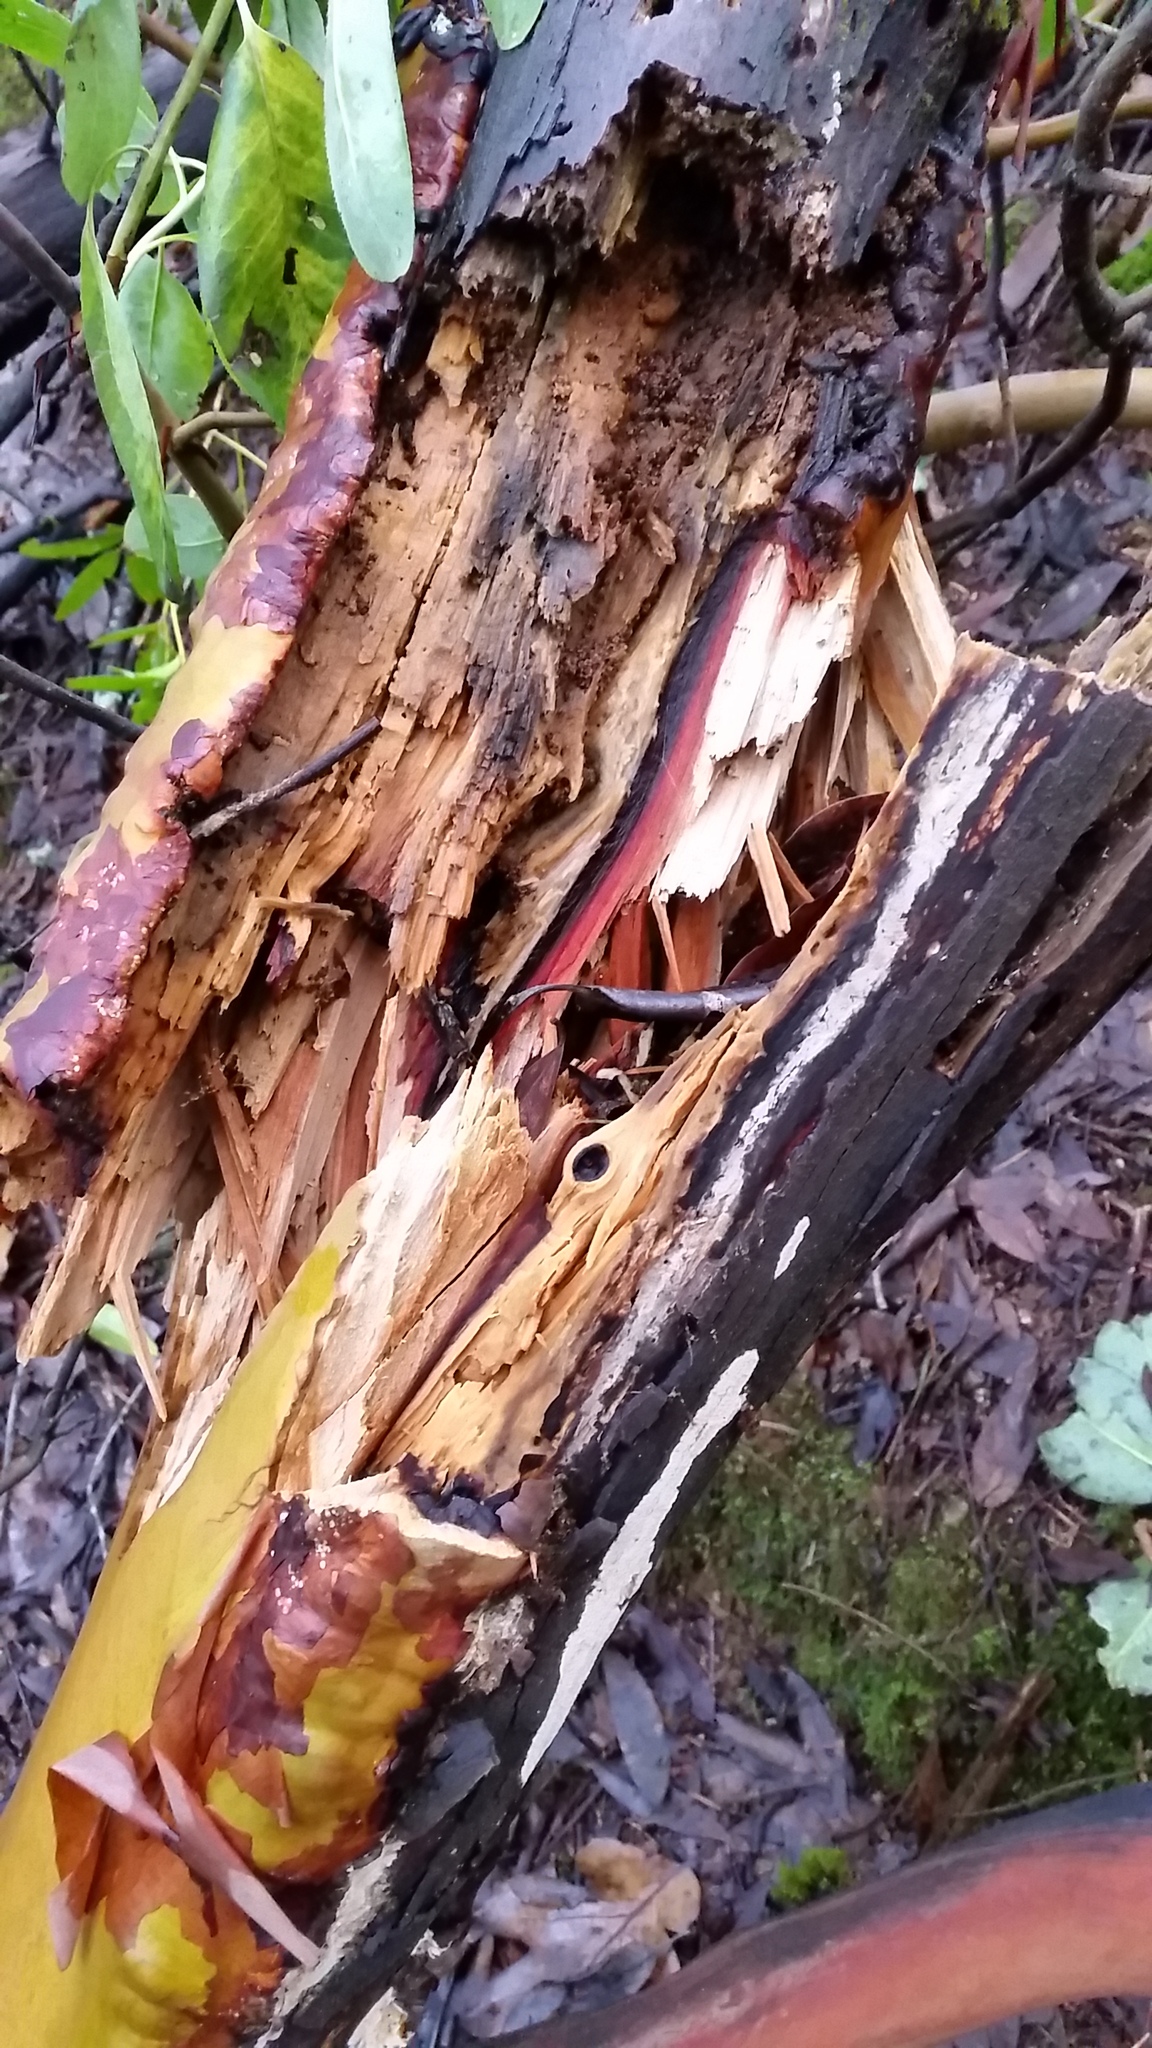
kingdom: Plantae
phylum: Tracheophyta
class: Magnoliopsida
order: Ericales
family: Ericaceae
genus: Arbutus
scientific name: Arbutus menziesii
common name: Pacific madrone
